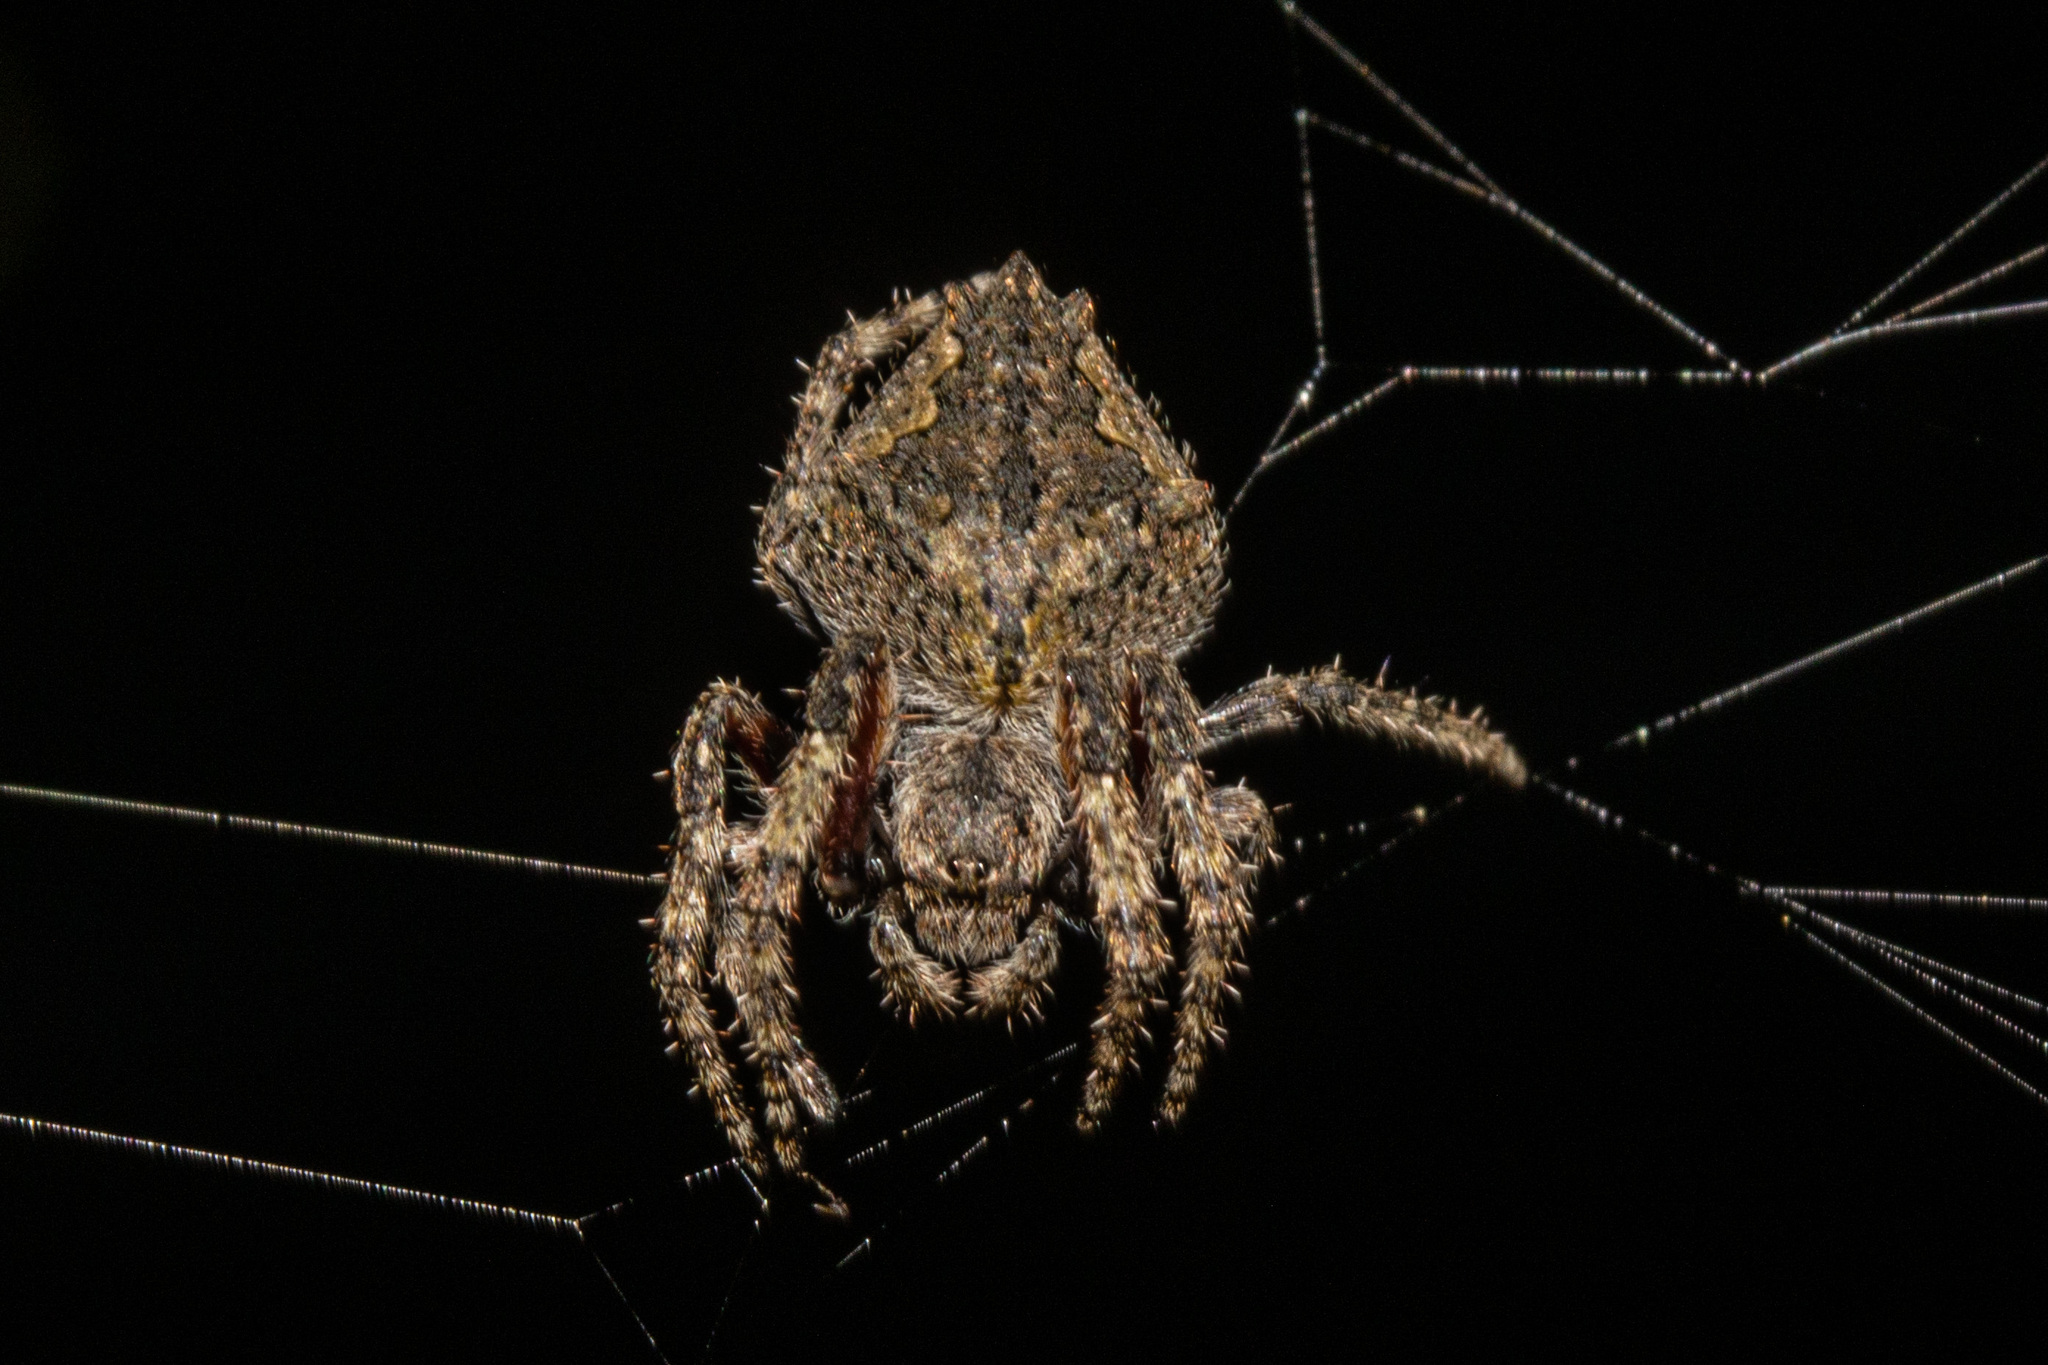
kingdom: Animalia
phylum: Arthropoda
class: Arachnida
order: Araneae
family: Araneidae
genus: Eriophora
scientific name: Eriophora pustulosa
